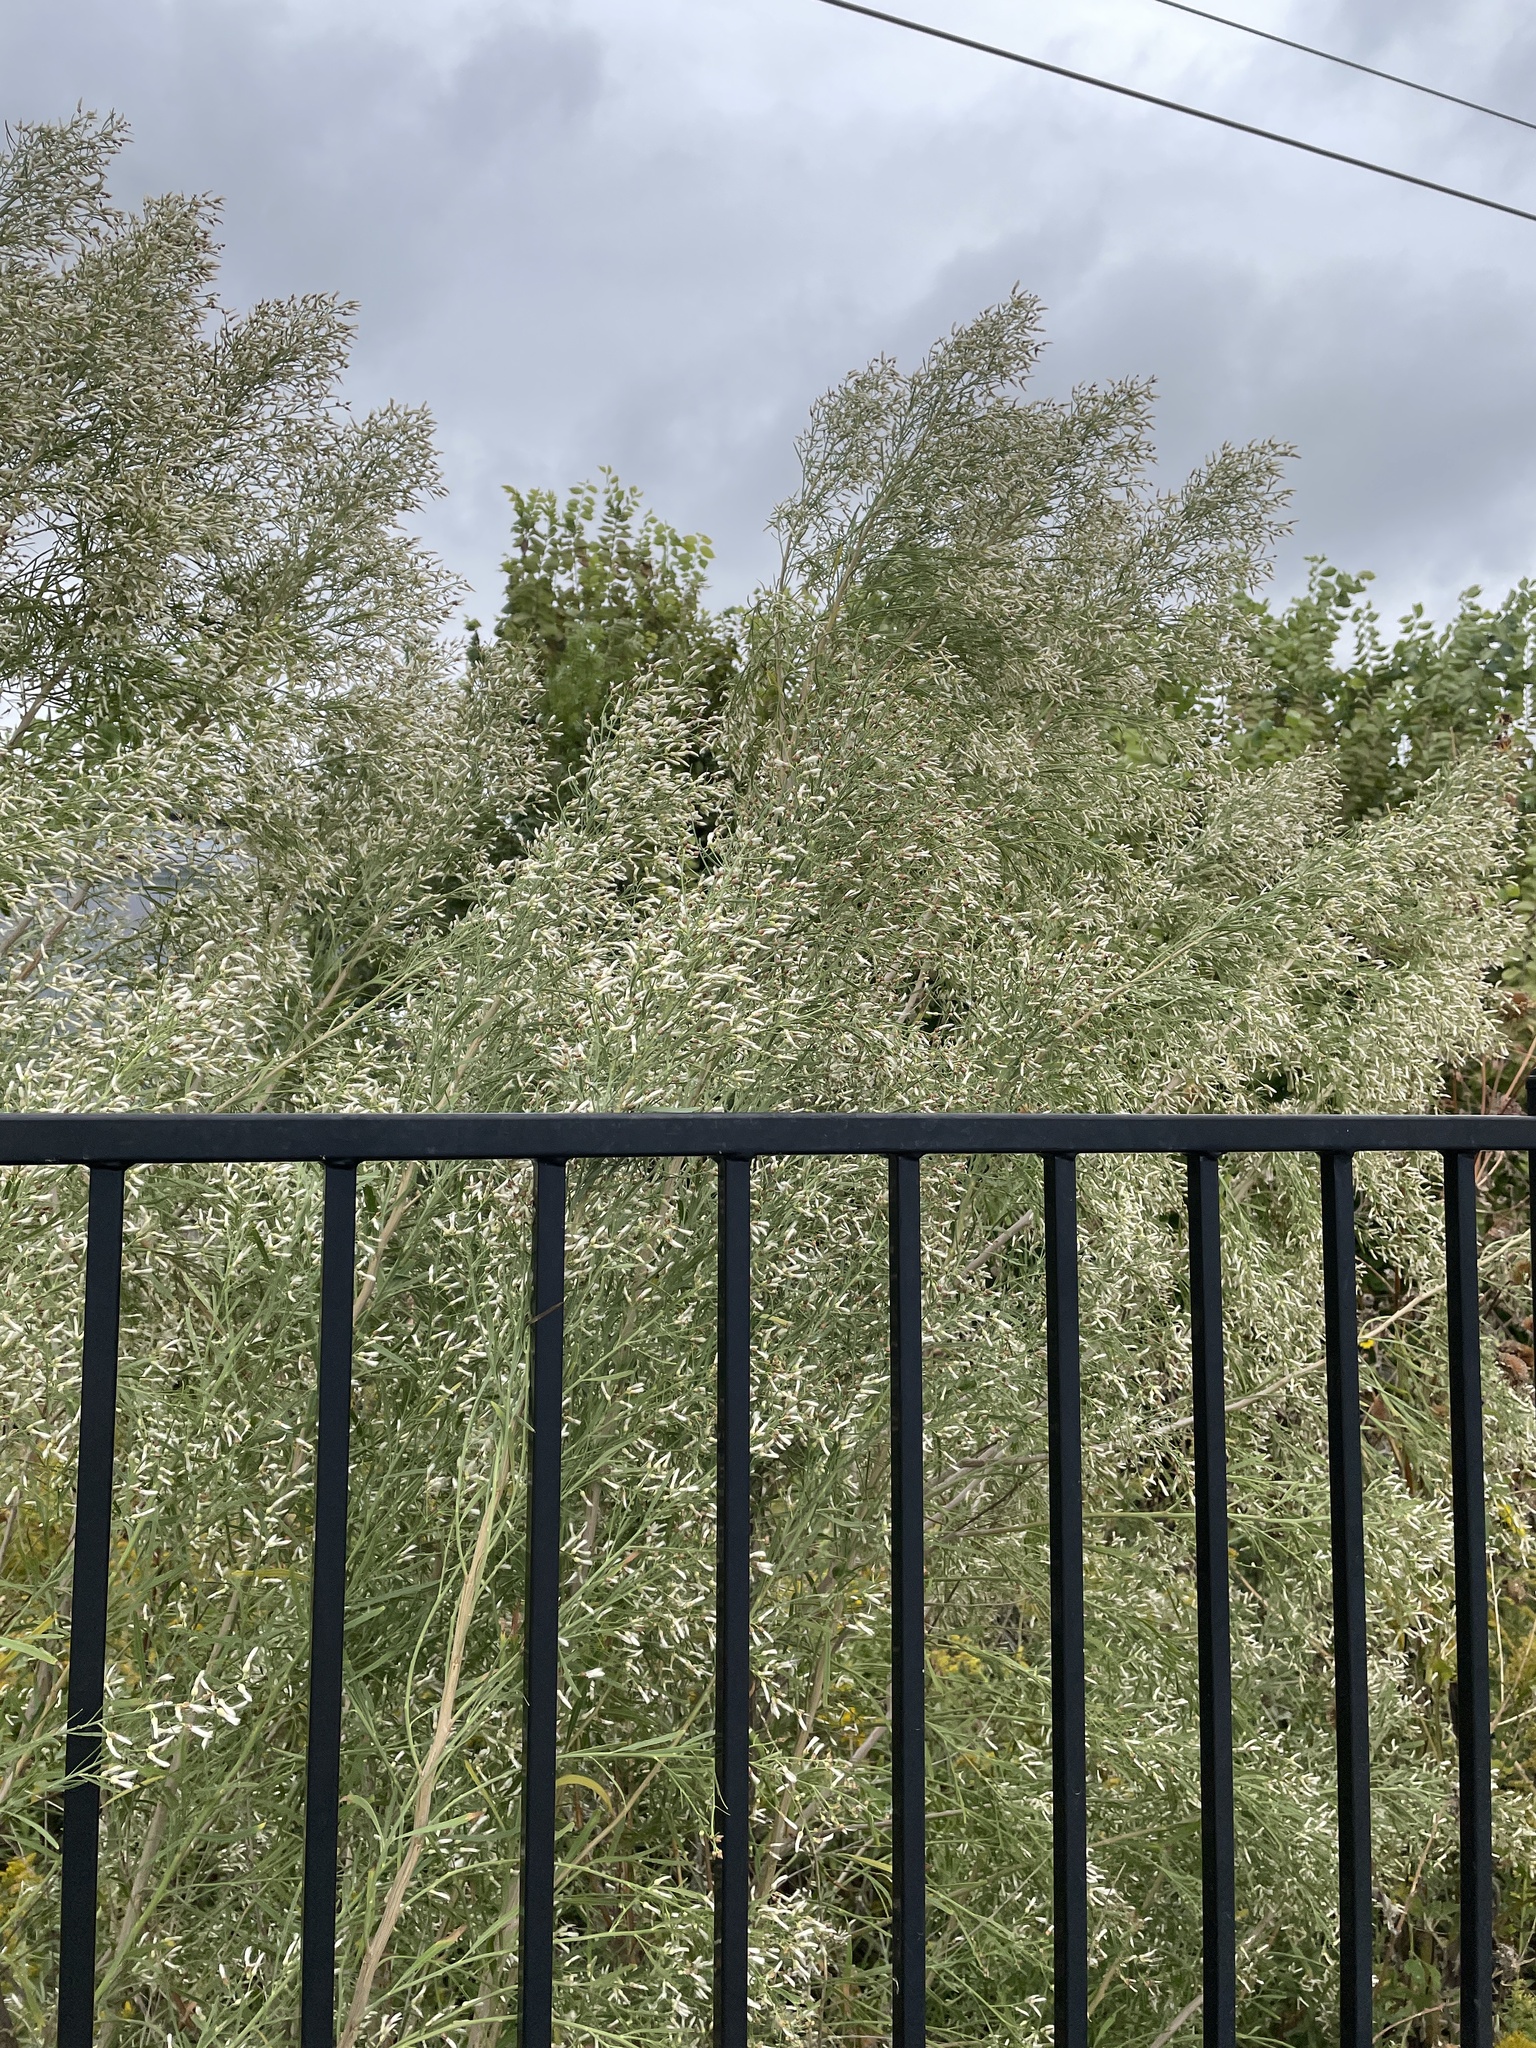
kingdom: Plantae
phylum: Tracheophyta
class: Magnoliopsida
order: Asterales
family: Asteraceae
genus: Baccharis
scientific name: Baccharis neglecta
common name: Roosevelt-weed
